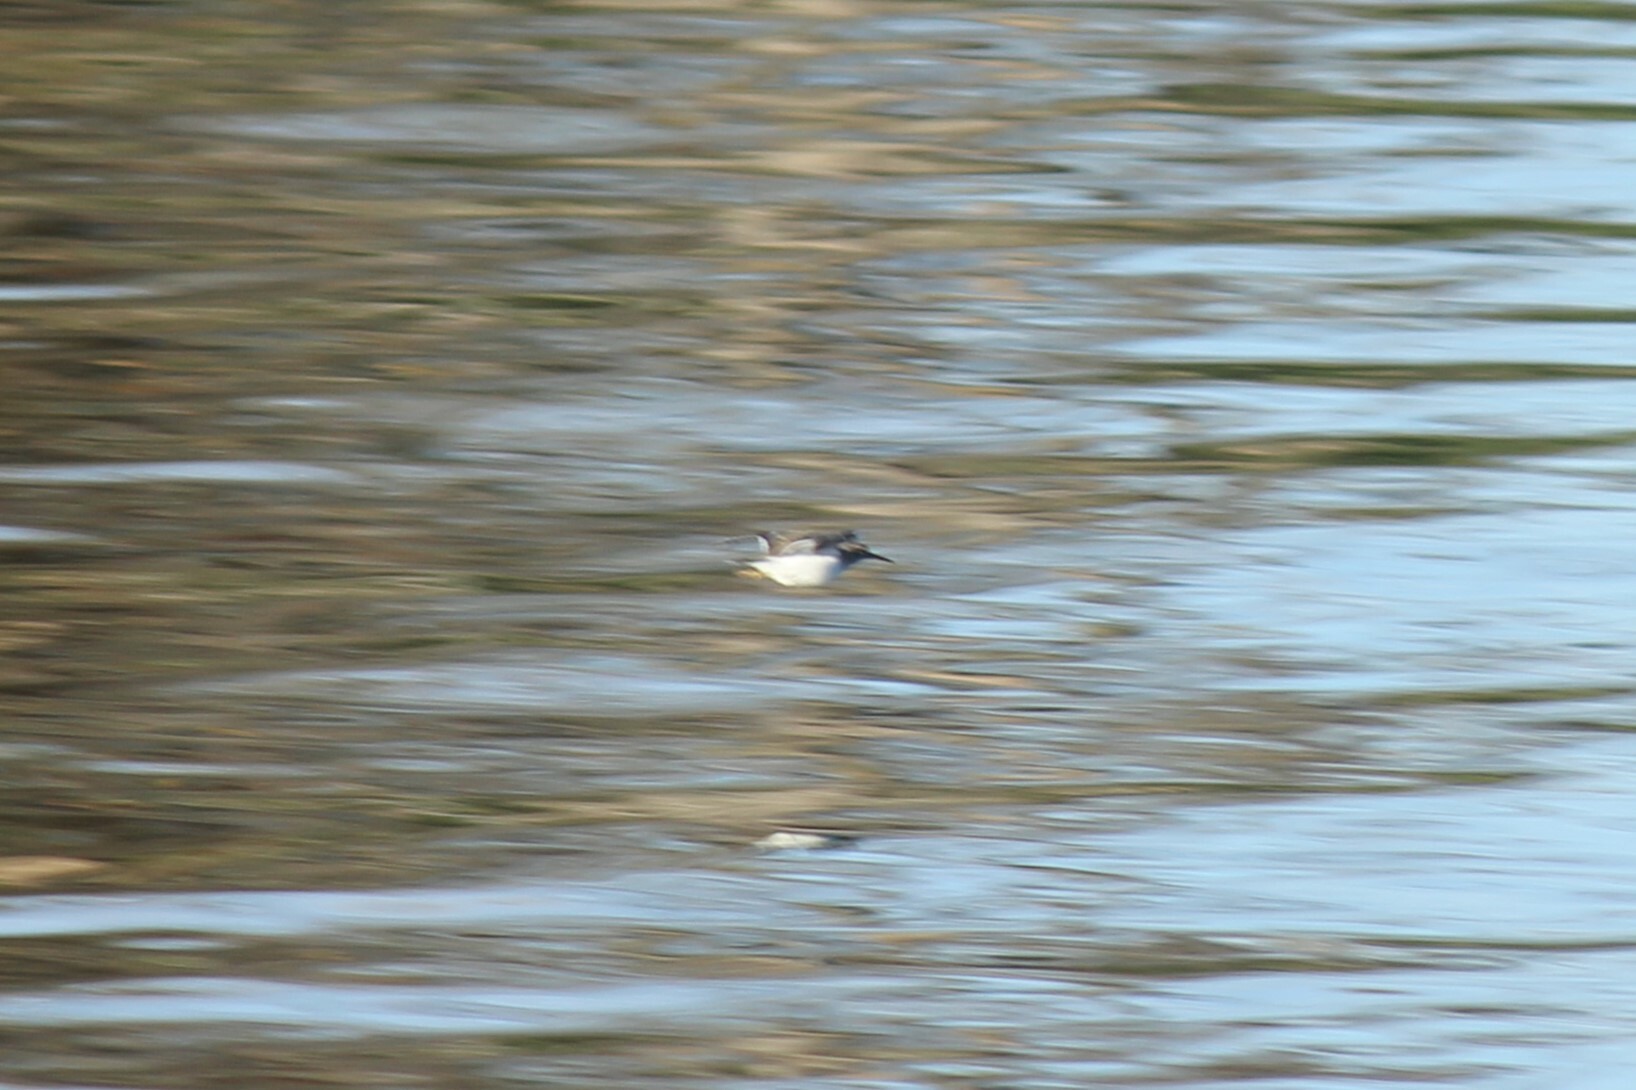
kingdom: Animalia
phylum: Chordata
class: Aves
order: Charadriiformes
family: Scolopacidae
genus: Actitis
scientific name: Actitis macularius
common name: Spotted sandpiper
